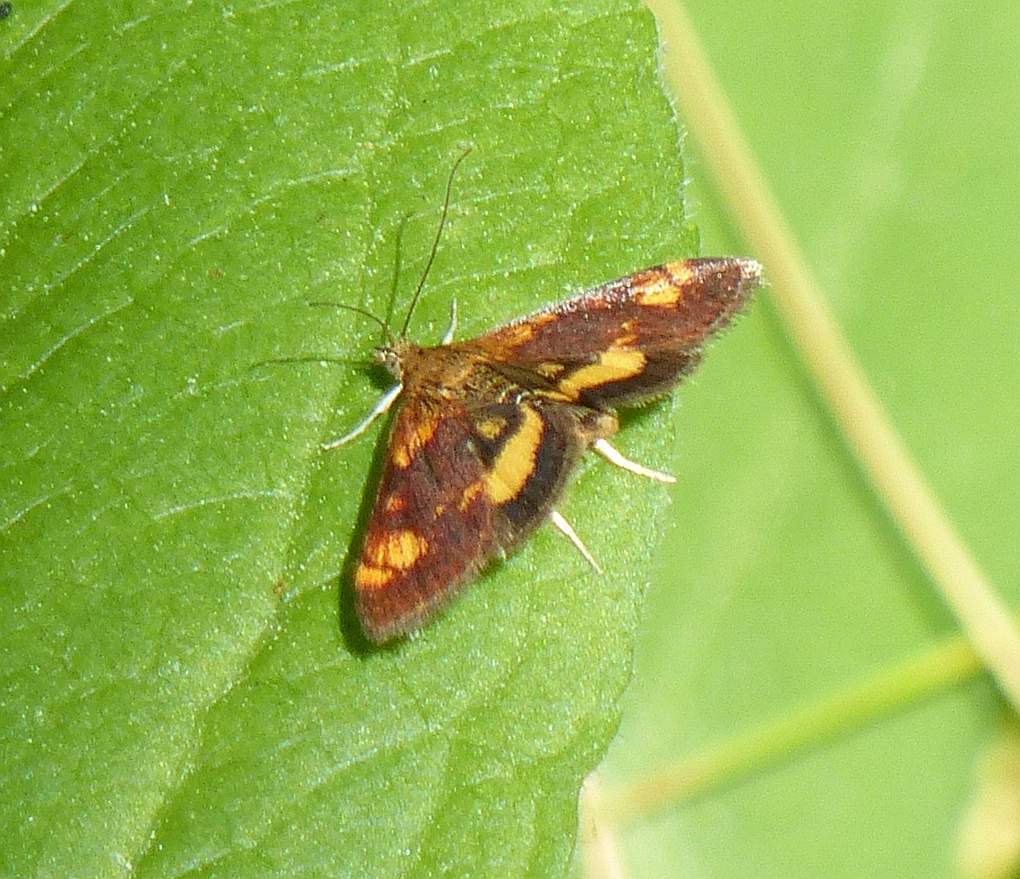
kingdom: Animalia
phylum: Arthropoda
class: Insecta
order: Lepidoptera
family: Crambidae
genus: Pyrausta
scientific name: Pyrausta orphisalis
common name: Orange mint moth
